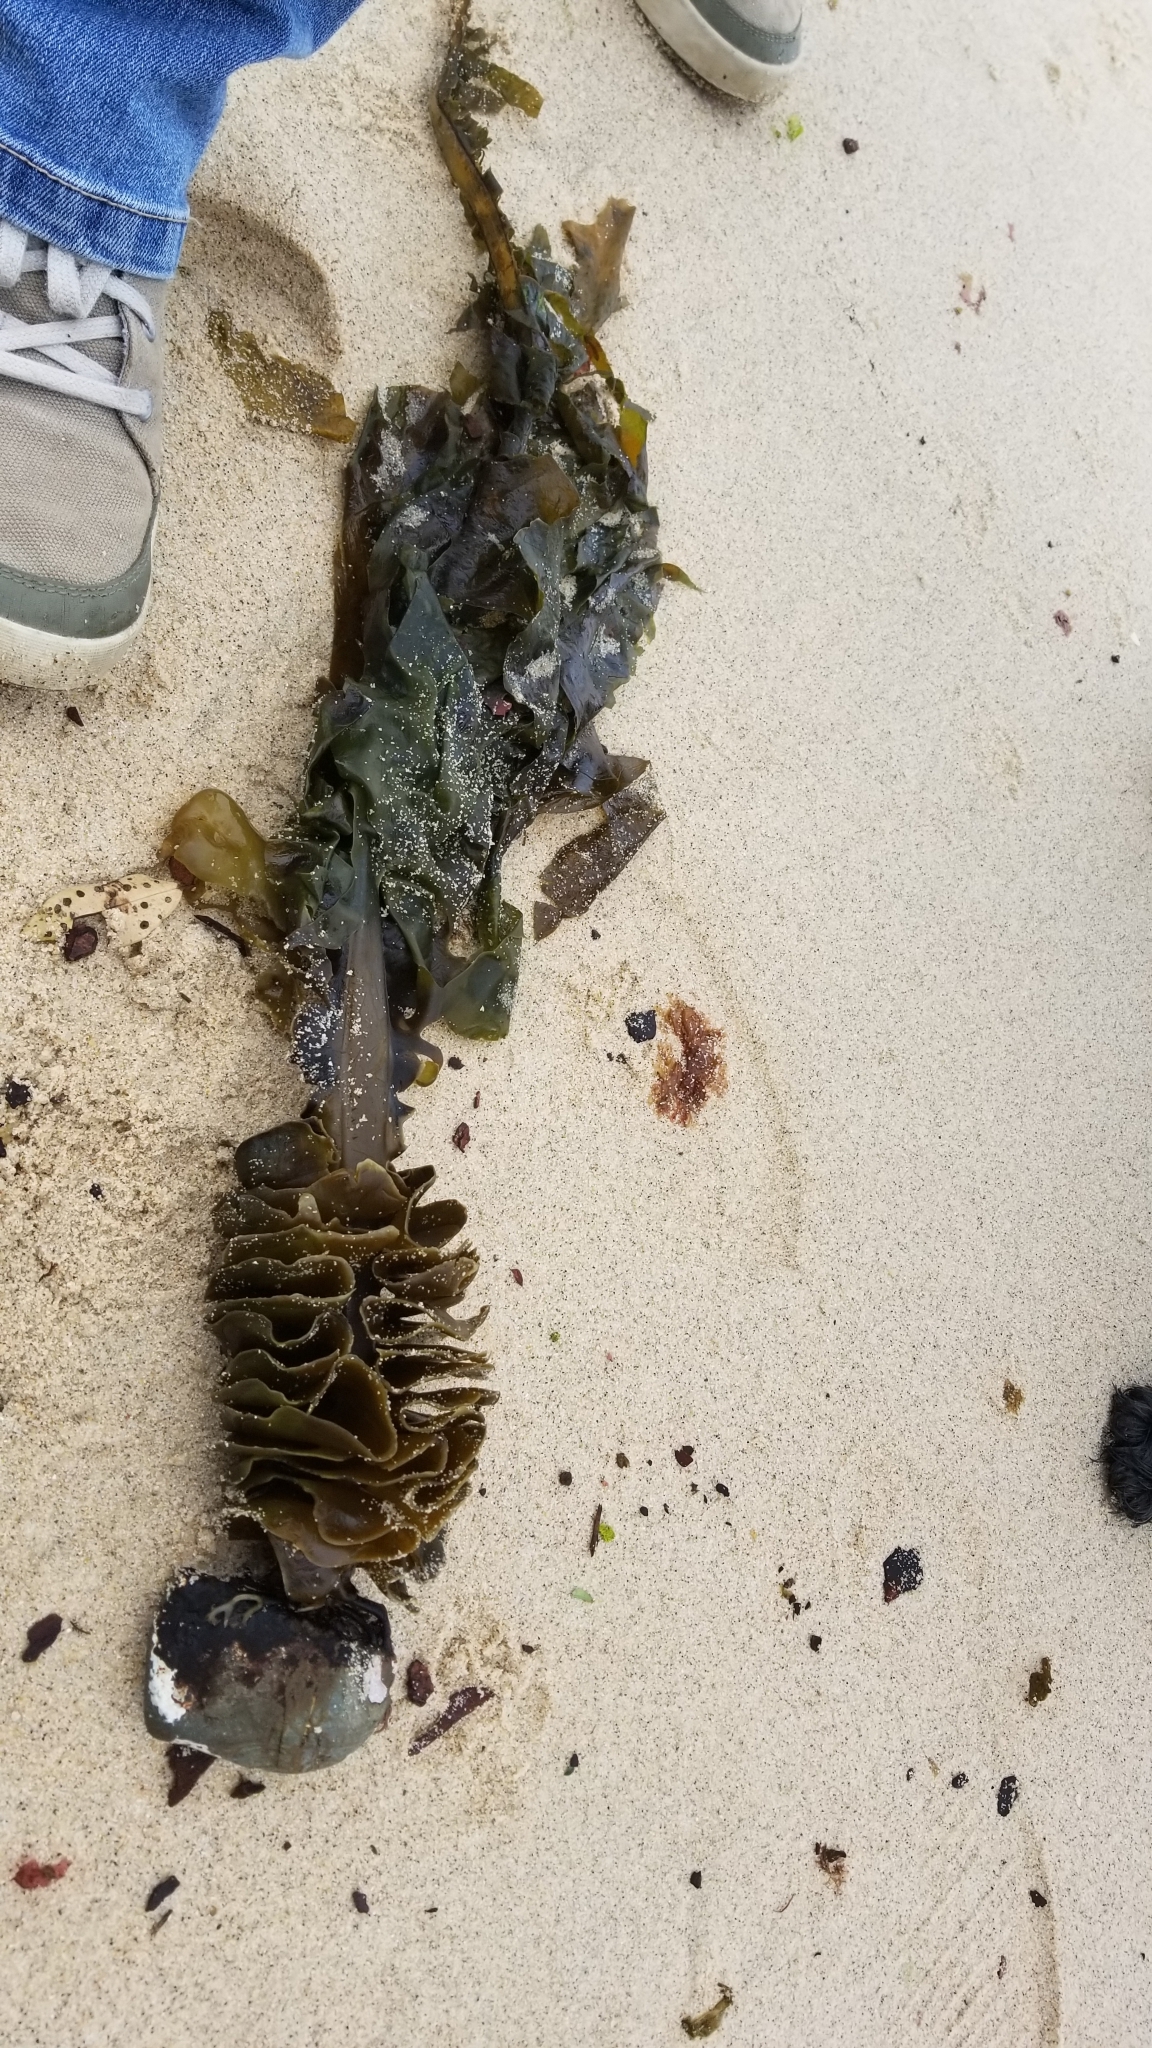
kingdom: Chromista
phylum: Ochrophyta
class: Phaeophyceae
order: Laminariales
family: Alariaceae
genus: Undaria
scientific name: Undaria pinnatifida
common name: Asian kelp
